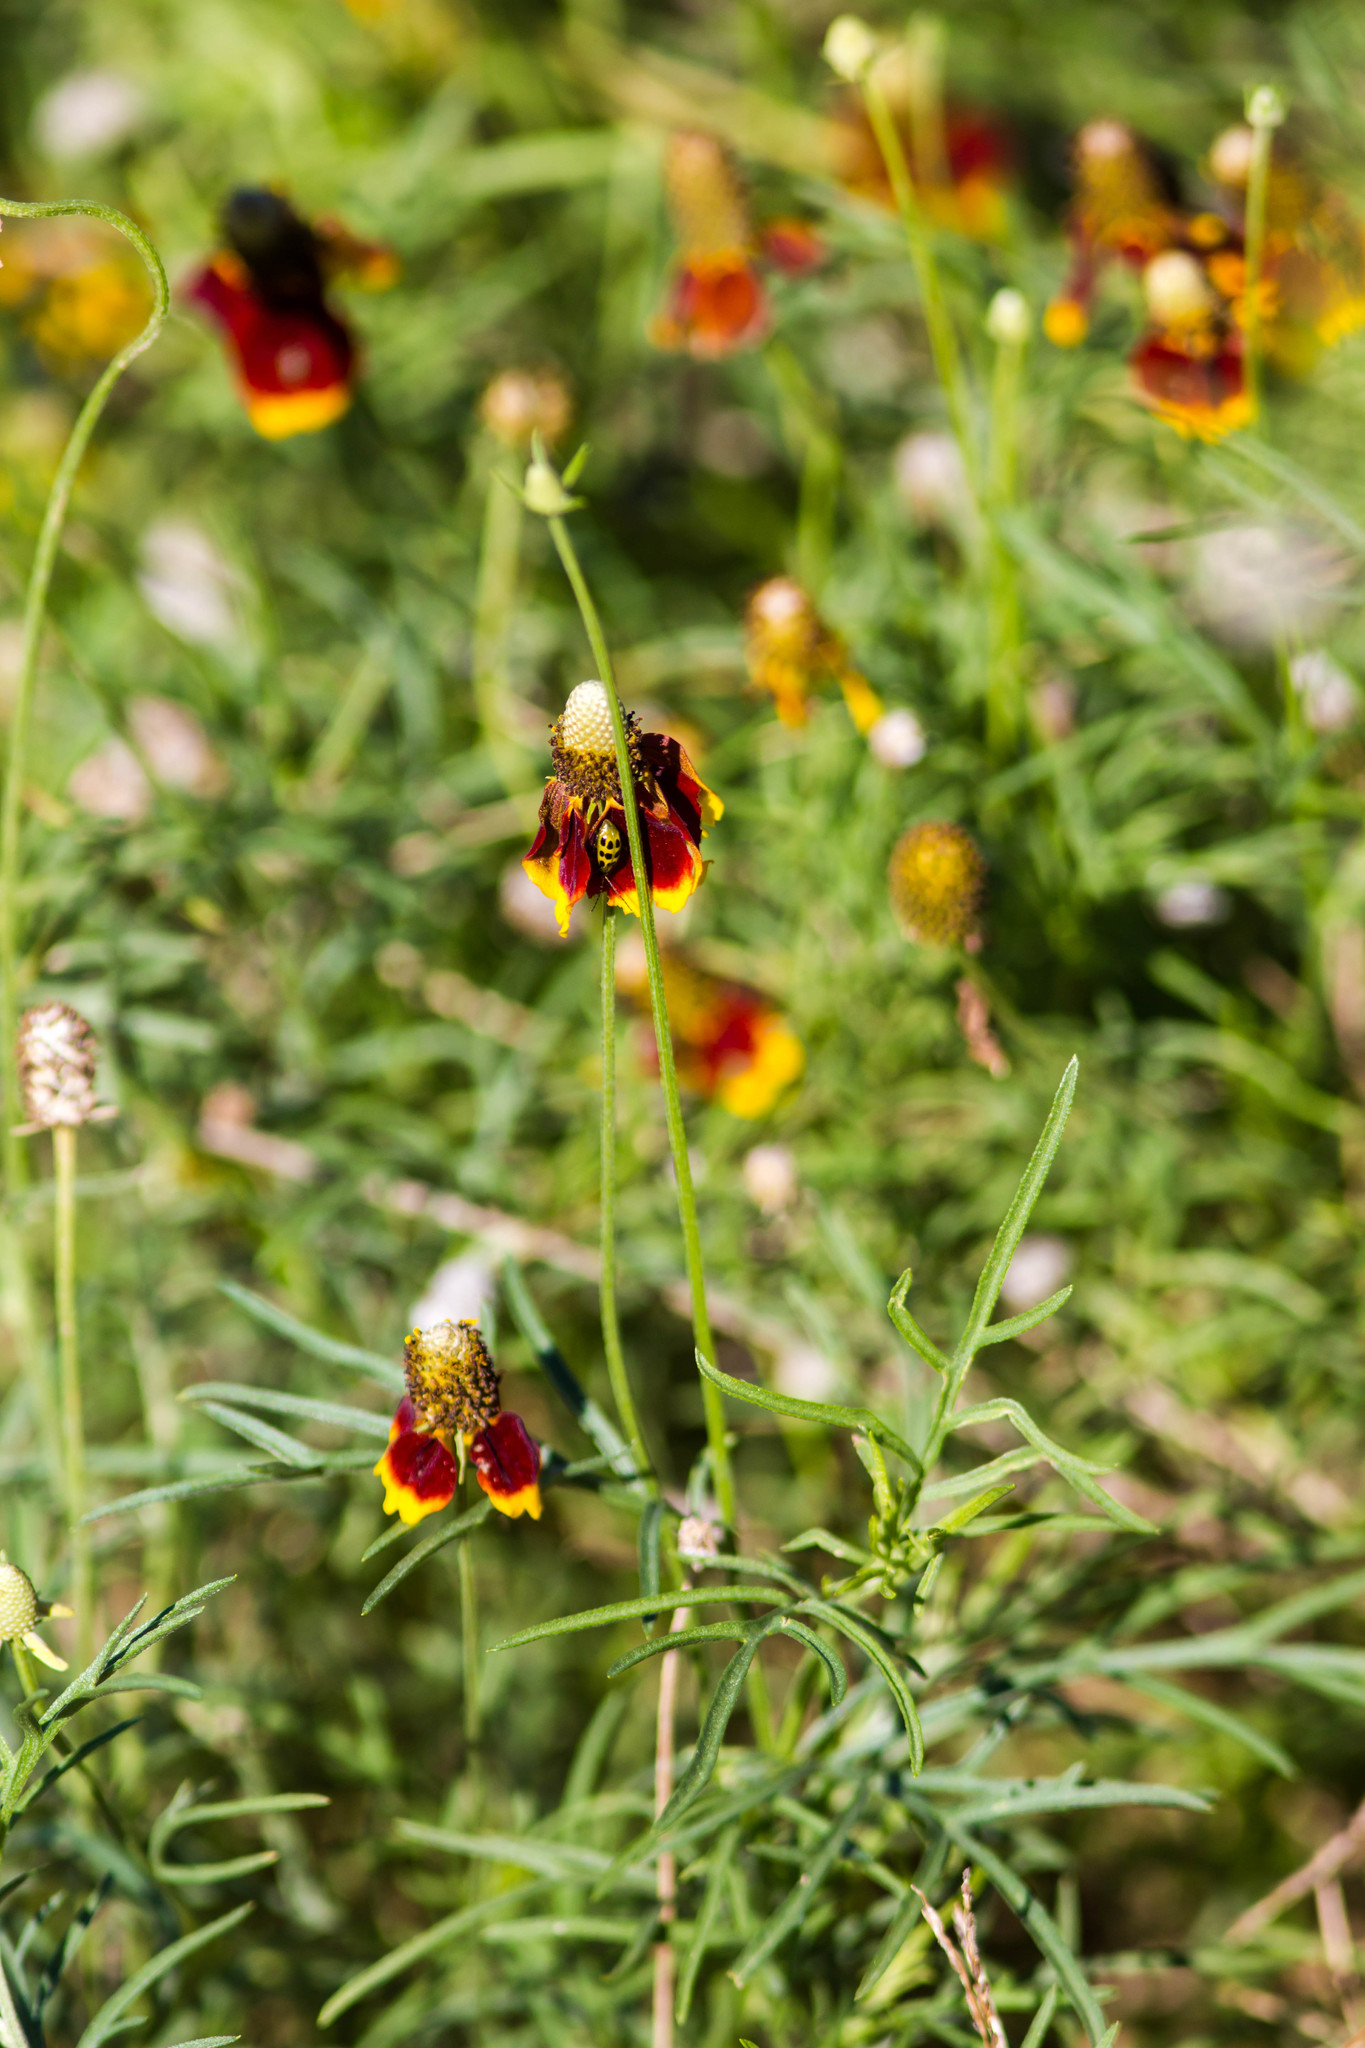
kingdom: Plantae
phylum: Tracheophyta
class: Magnoliopsida
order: Asterales
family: Asteraceae
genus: Ratibida
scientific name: Ratibida columnifera
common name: Prairie coneflower
